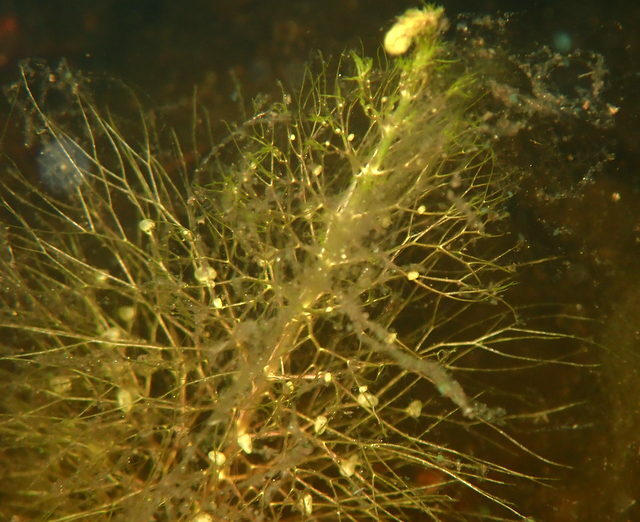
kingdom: Plantae
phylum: Tracheophyta
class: Magnoliopsida
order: Lamiales
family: Lentibulariaceae
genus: Utricularia
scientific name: Utricularia floridana
